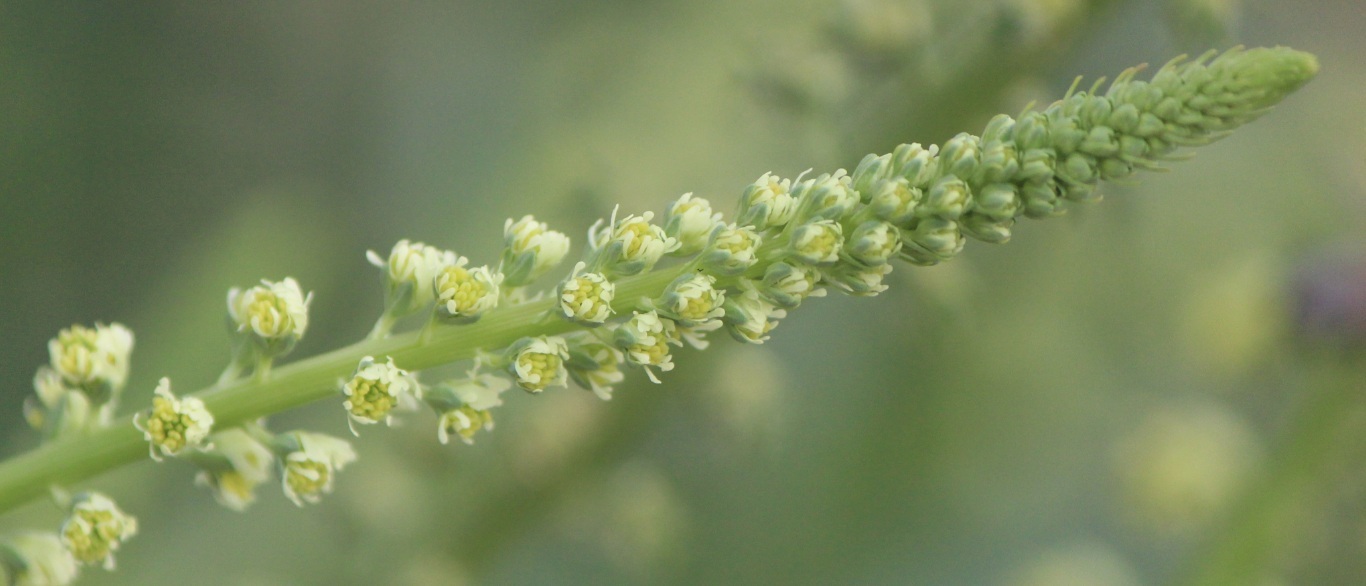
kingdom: Plantae
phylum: Tracheophyta
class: Magnoliopsida
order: Brassicales
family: Resedaceae
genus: Reseda
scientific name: Reseda luteola
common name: Weld
